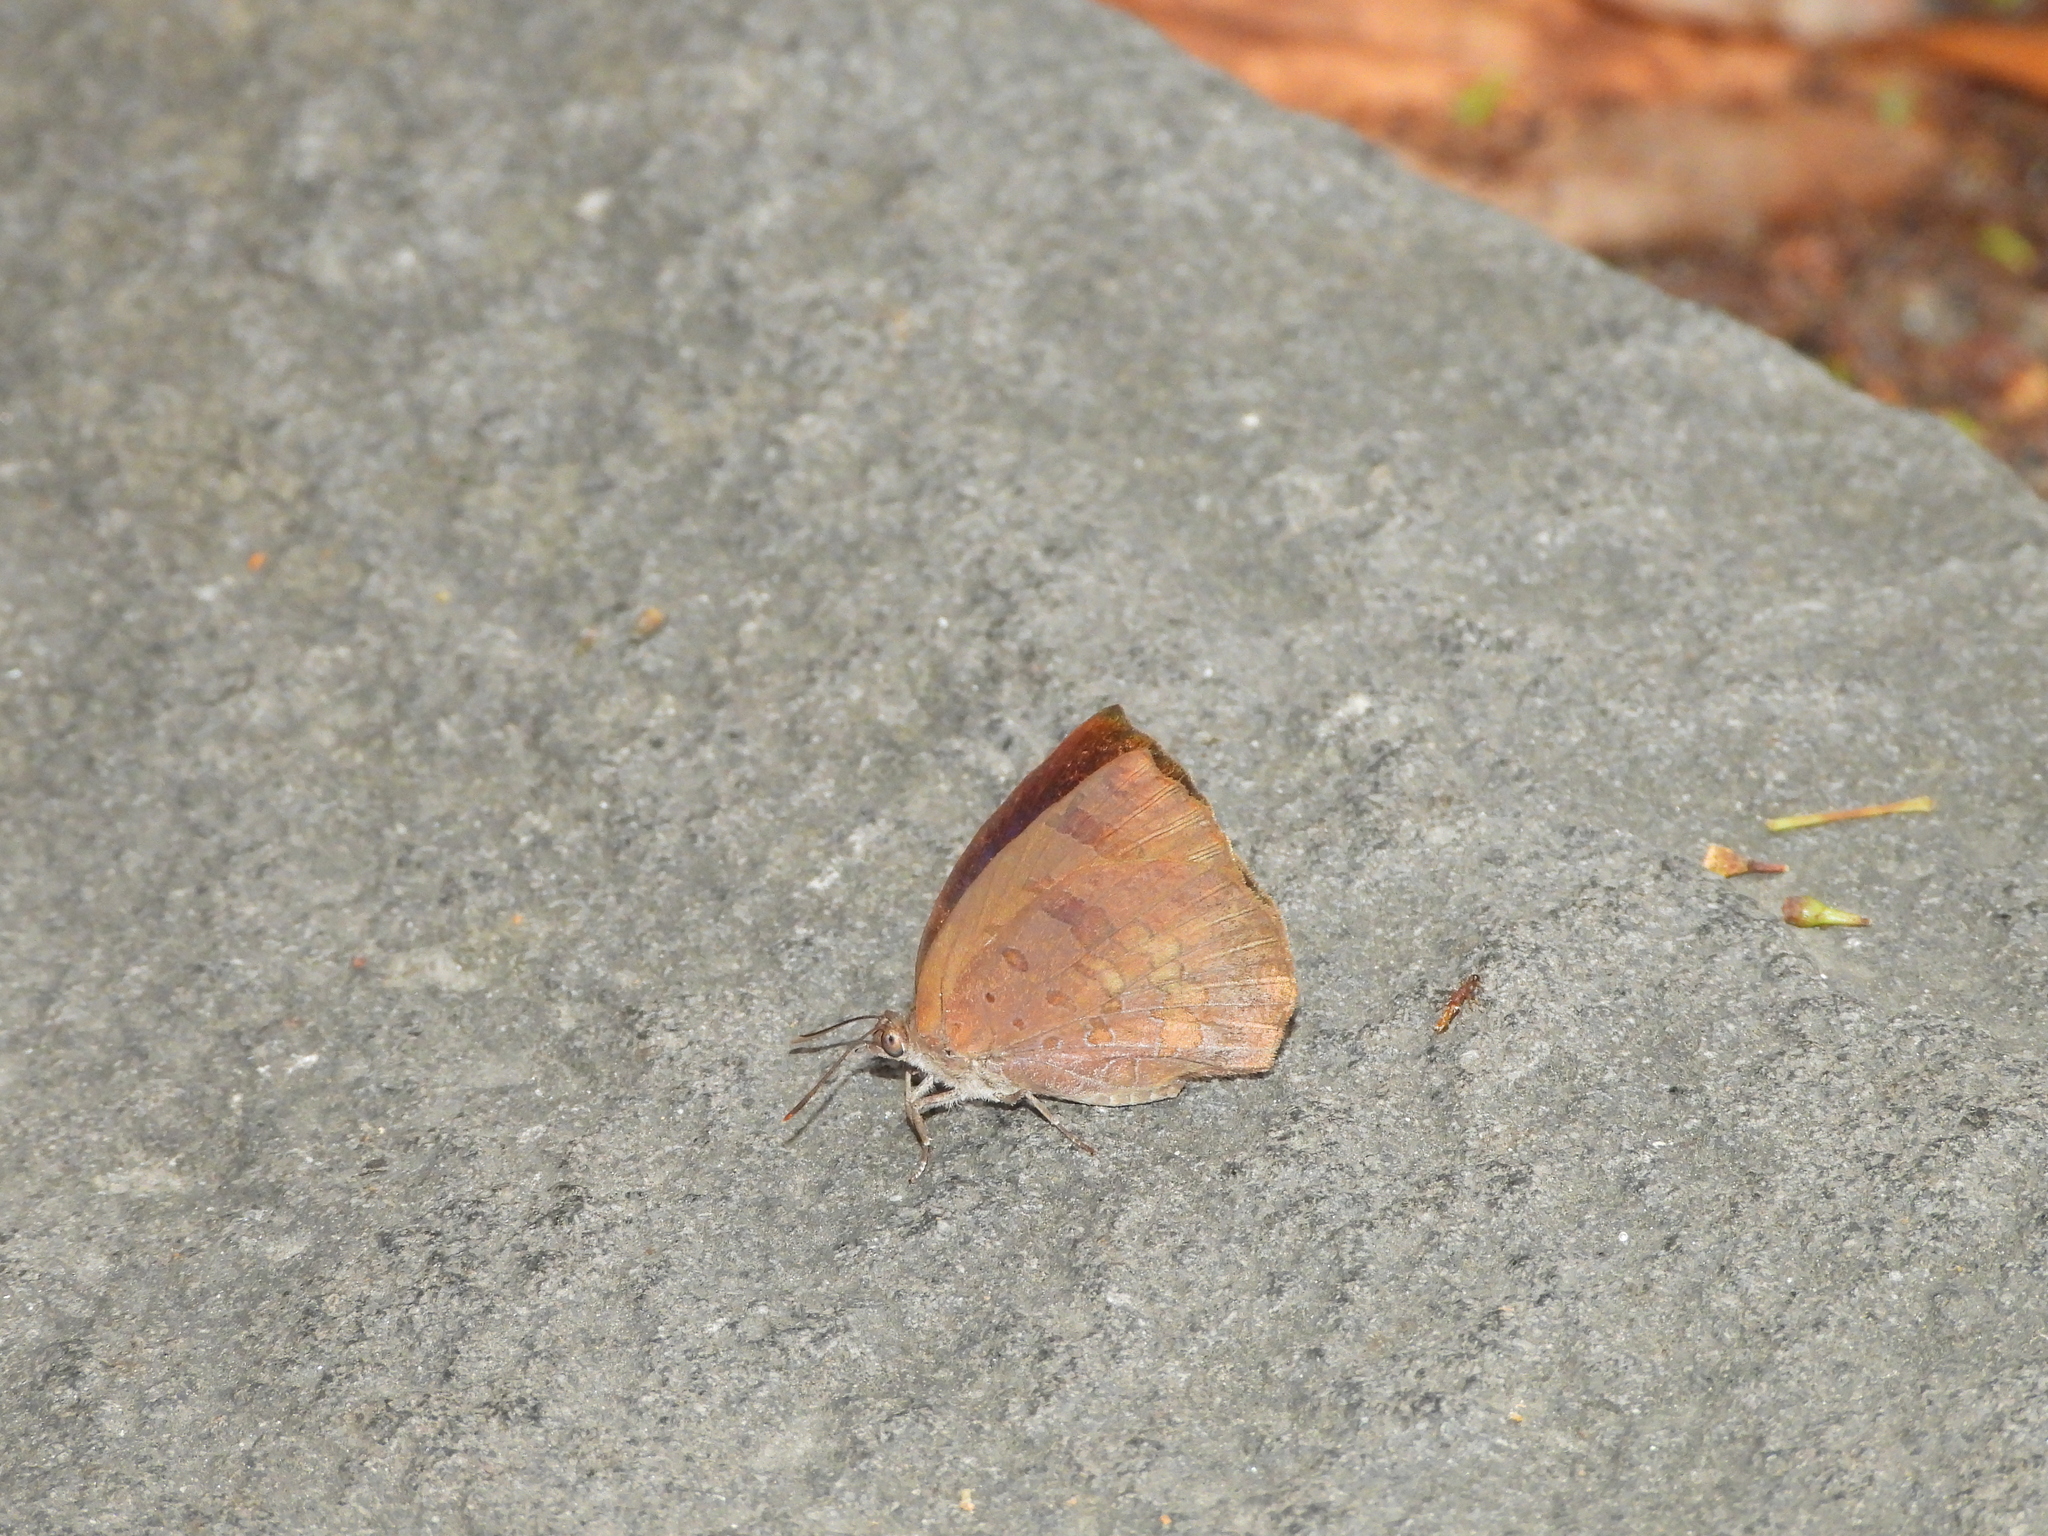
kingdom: Animalia
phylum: Arthropoda
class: Insecta
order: Lepidoptera
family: Lycaenidae
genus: Arhopala
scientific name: Arhopala japonica
